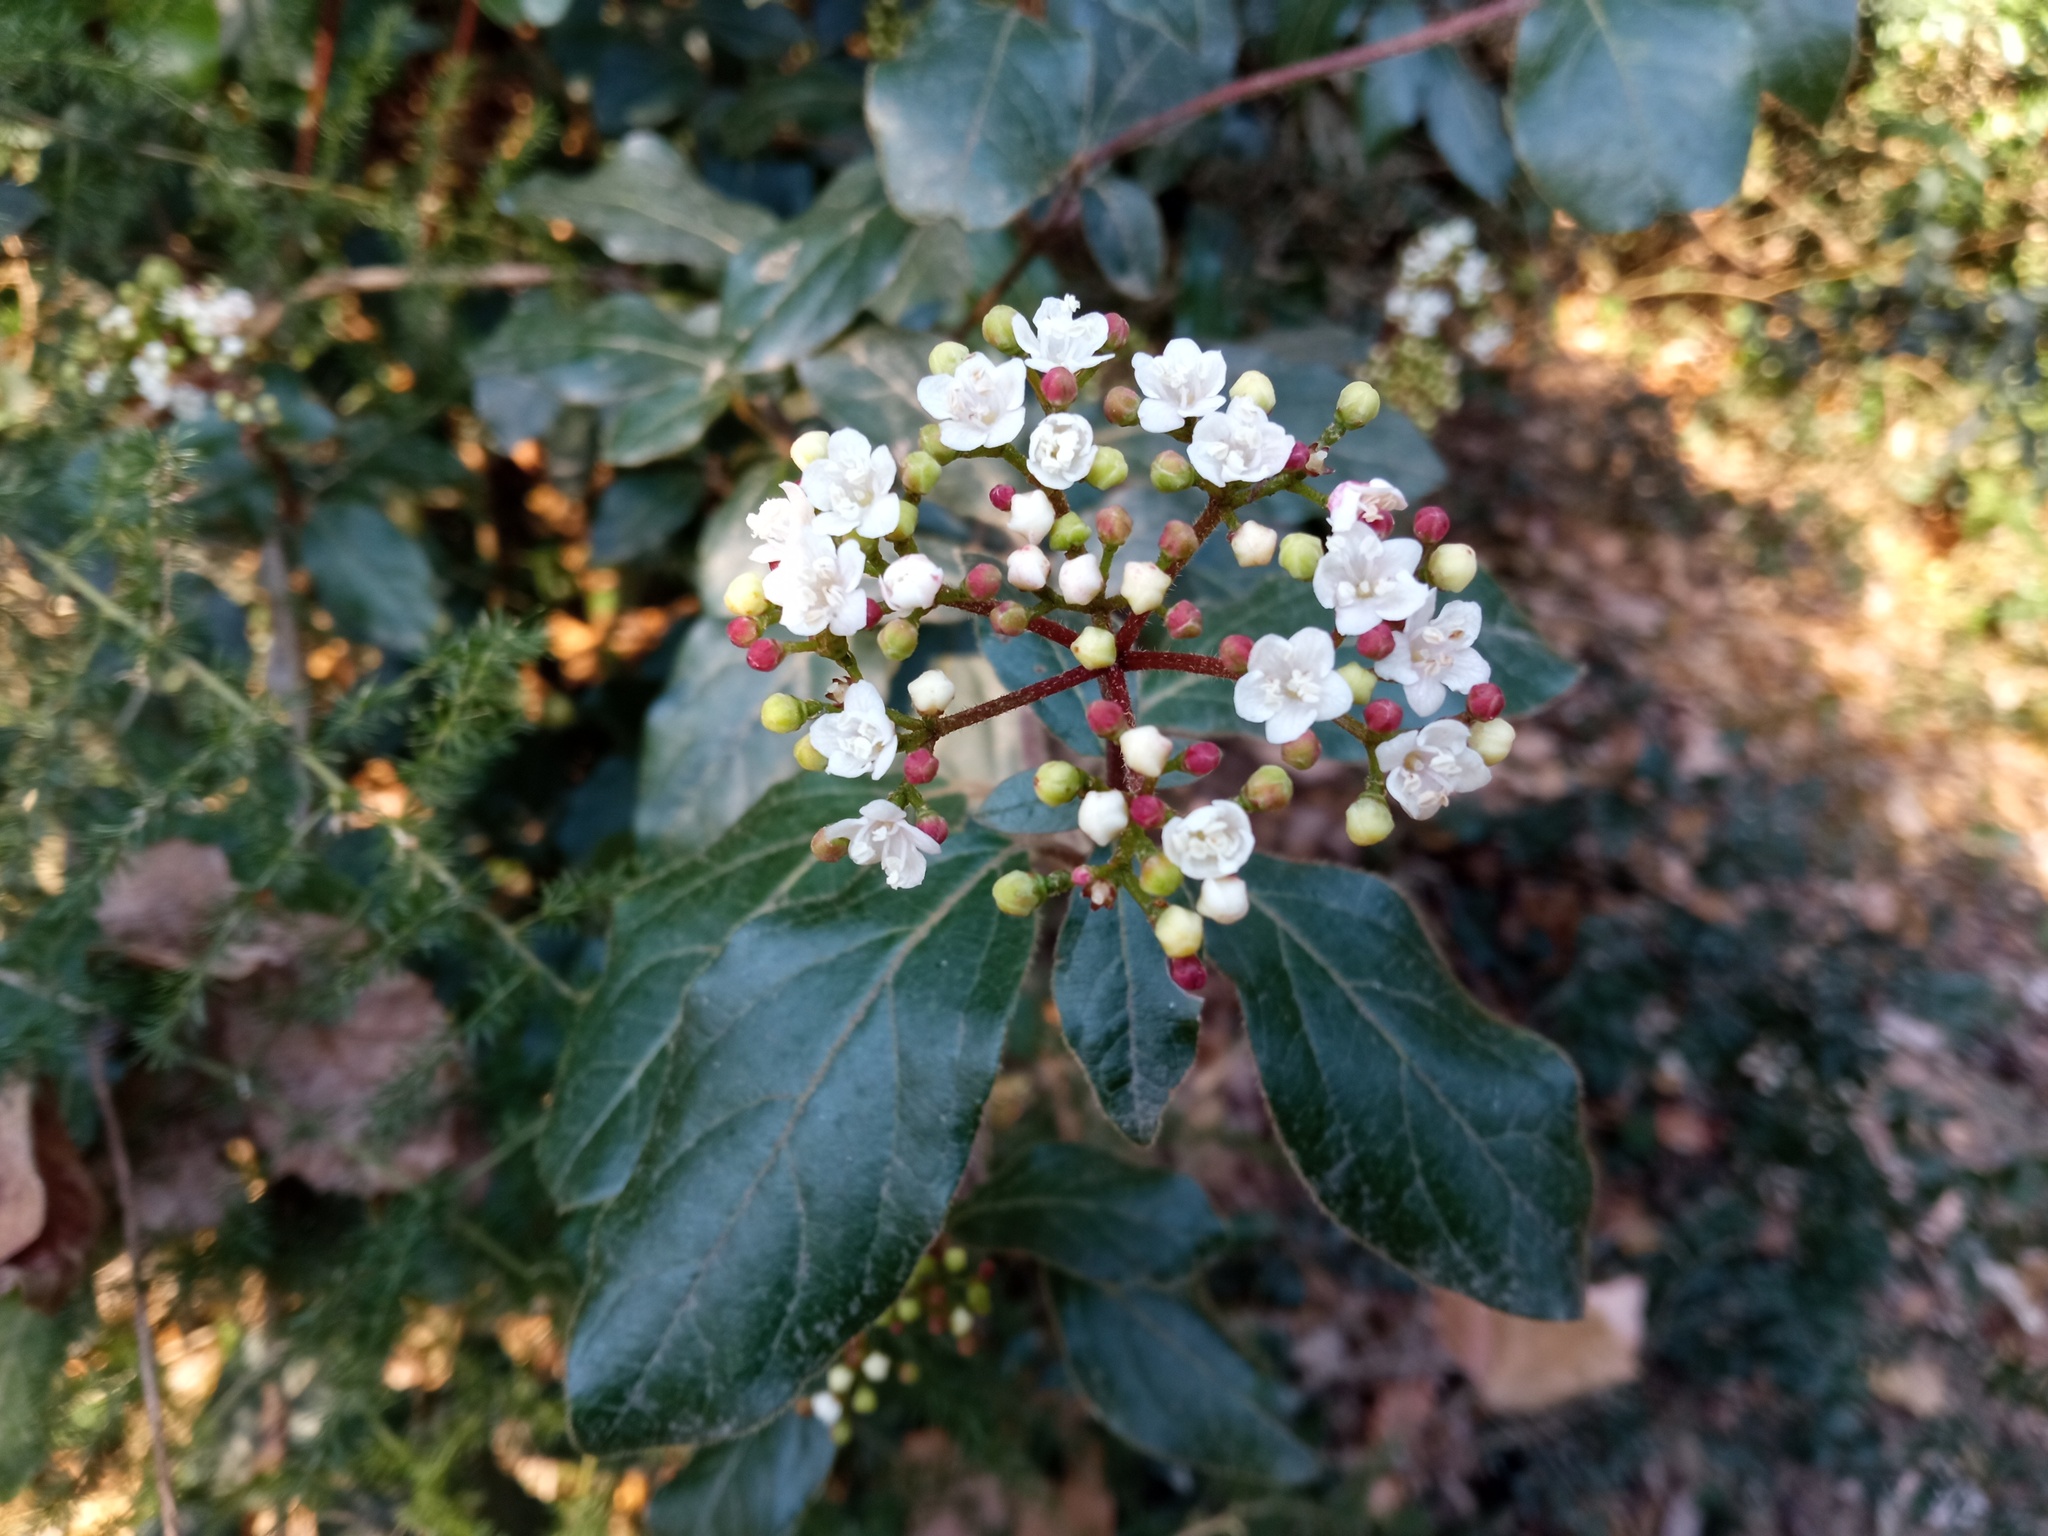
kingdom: Plantae
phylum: Tracheophyta
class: Magnoliopsida
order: Dipsacales
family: Viburnaceae
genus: Viburnum
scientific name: Viburnum tinus
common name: Laurustinus
